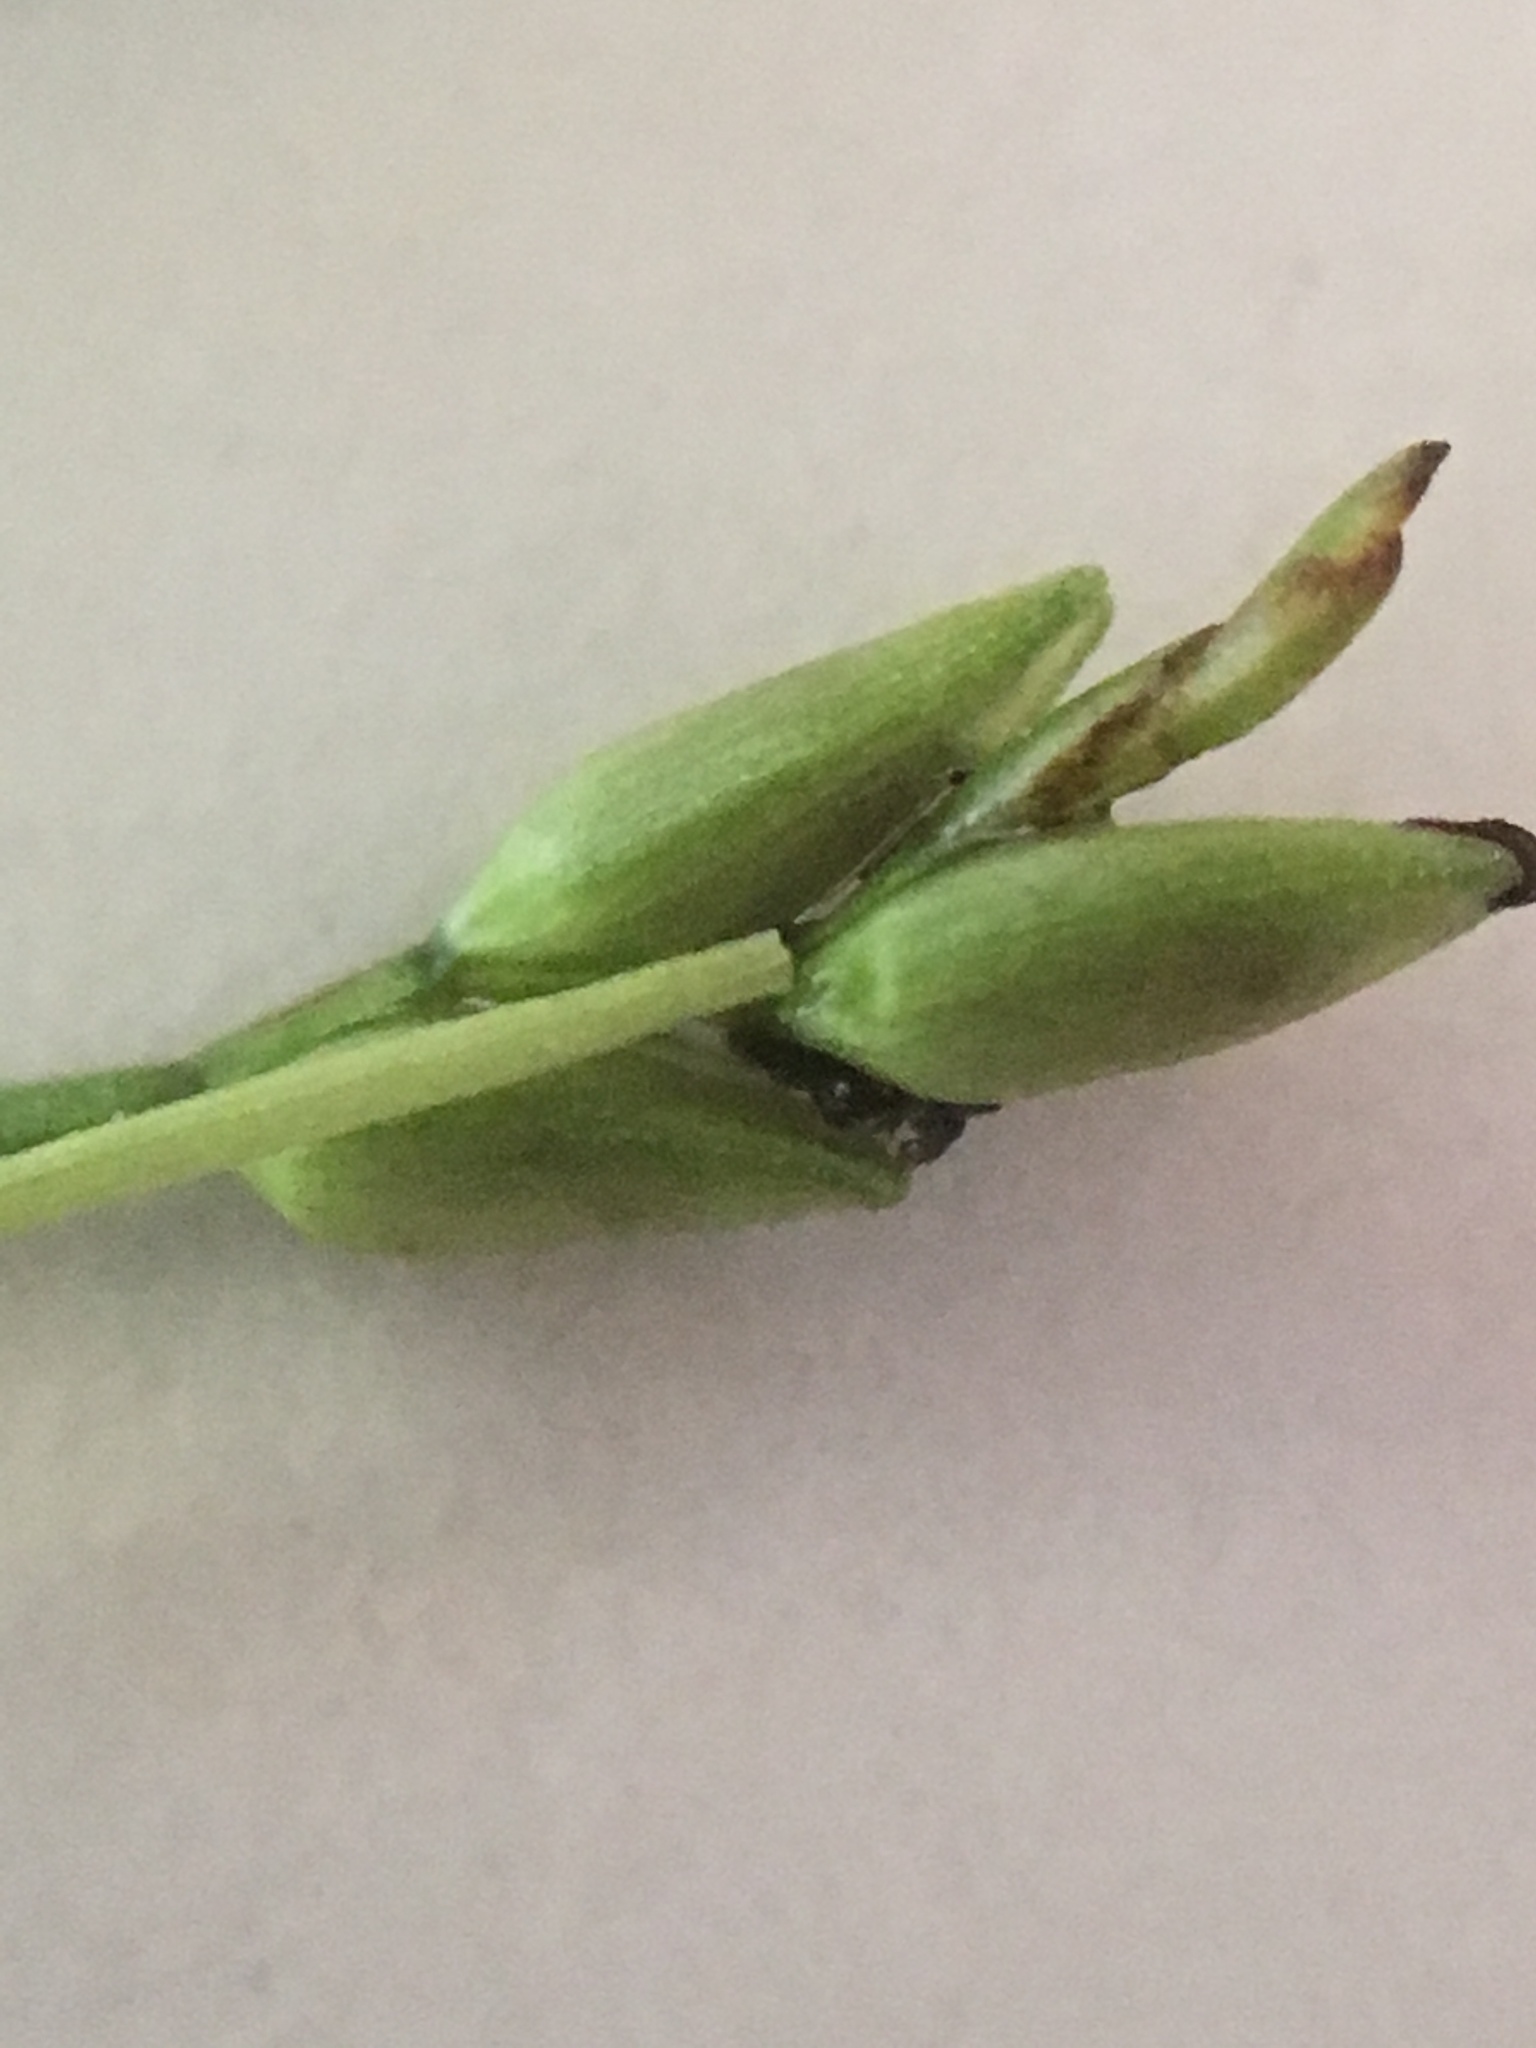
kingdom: Plantae
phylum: Tracheophyta
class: Liliopsida
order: Poales
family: Cyperaceae
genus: Carex
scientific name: Carex leptalea
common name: Bristly-stalked sedge
